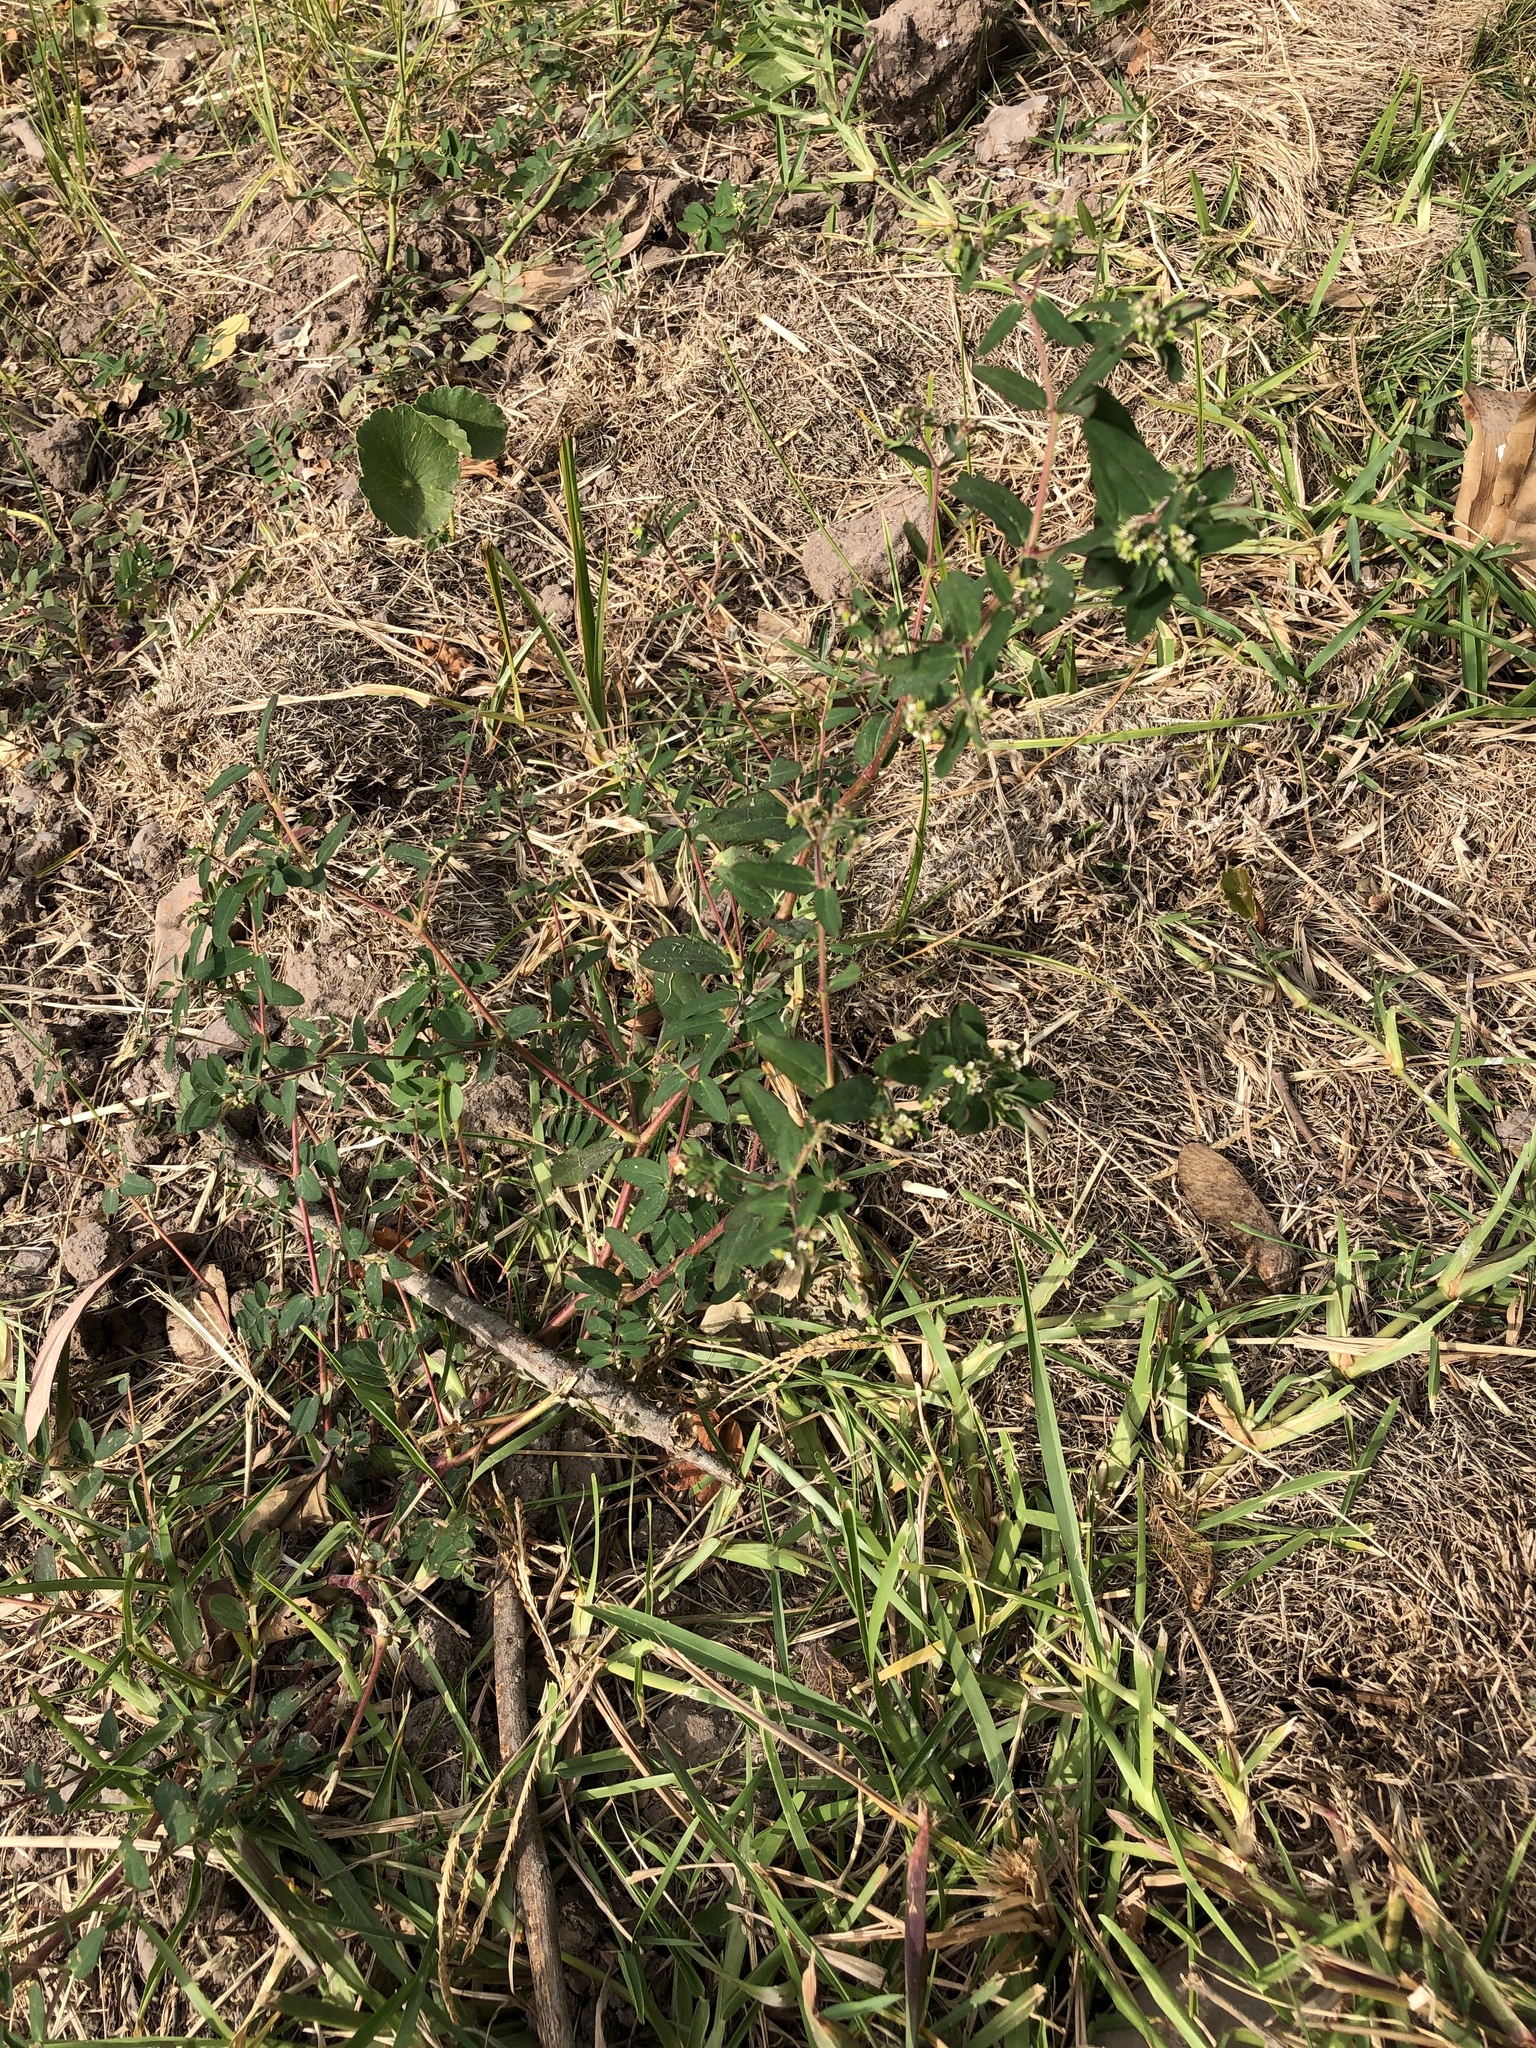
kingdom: Plantae
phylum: Tracheophyta
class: Magnoliopsida
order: Malpighiales
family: Euphorbiaceae
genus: Euphorbia
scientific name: Euphorbia lasiocarpa
